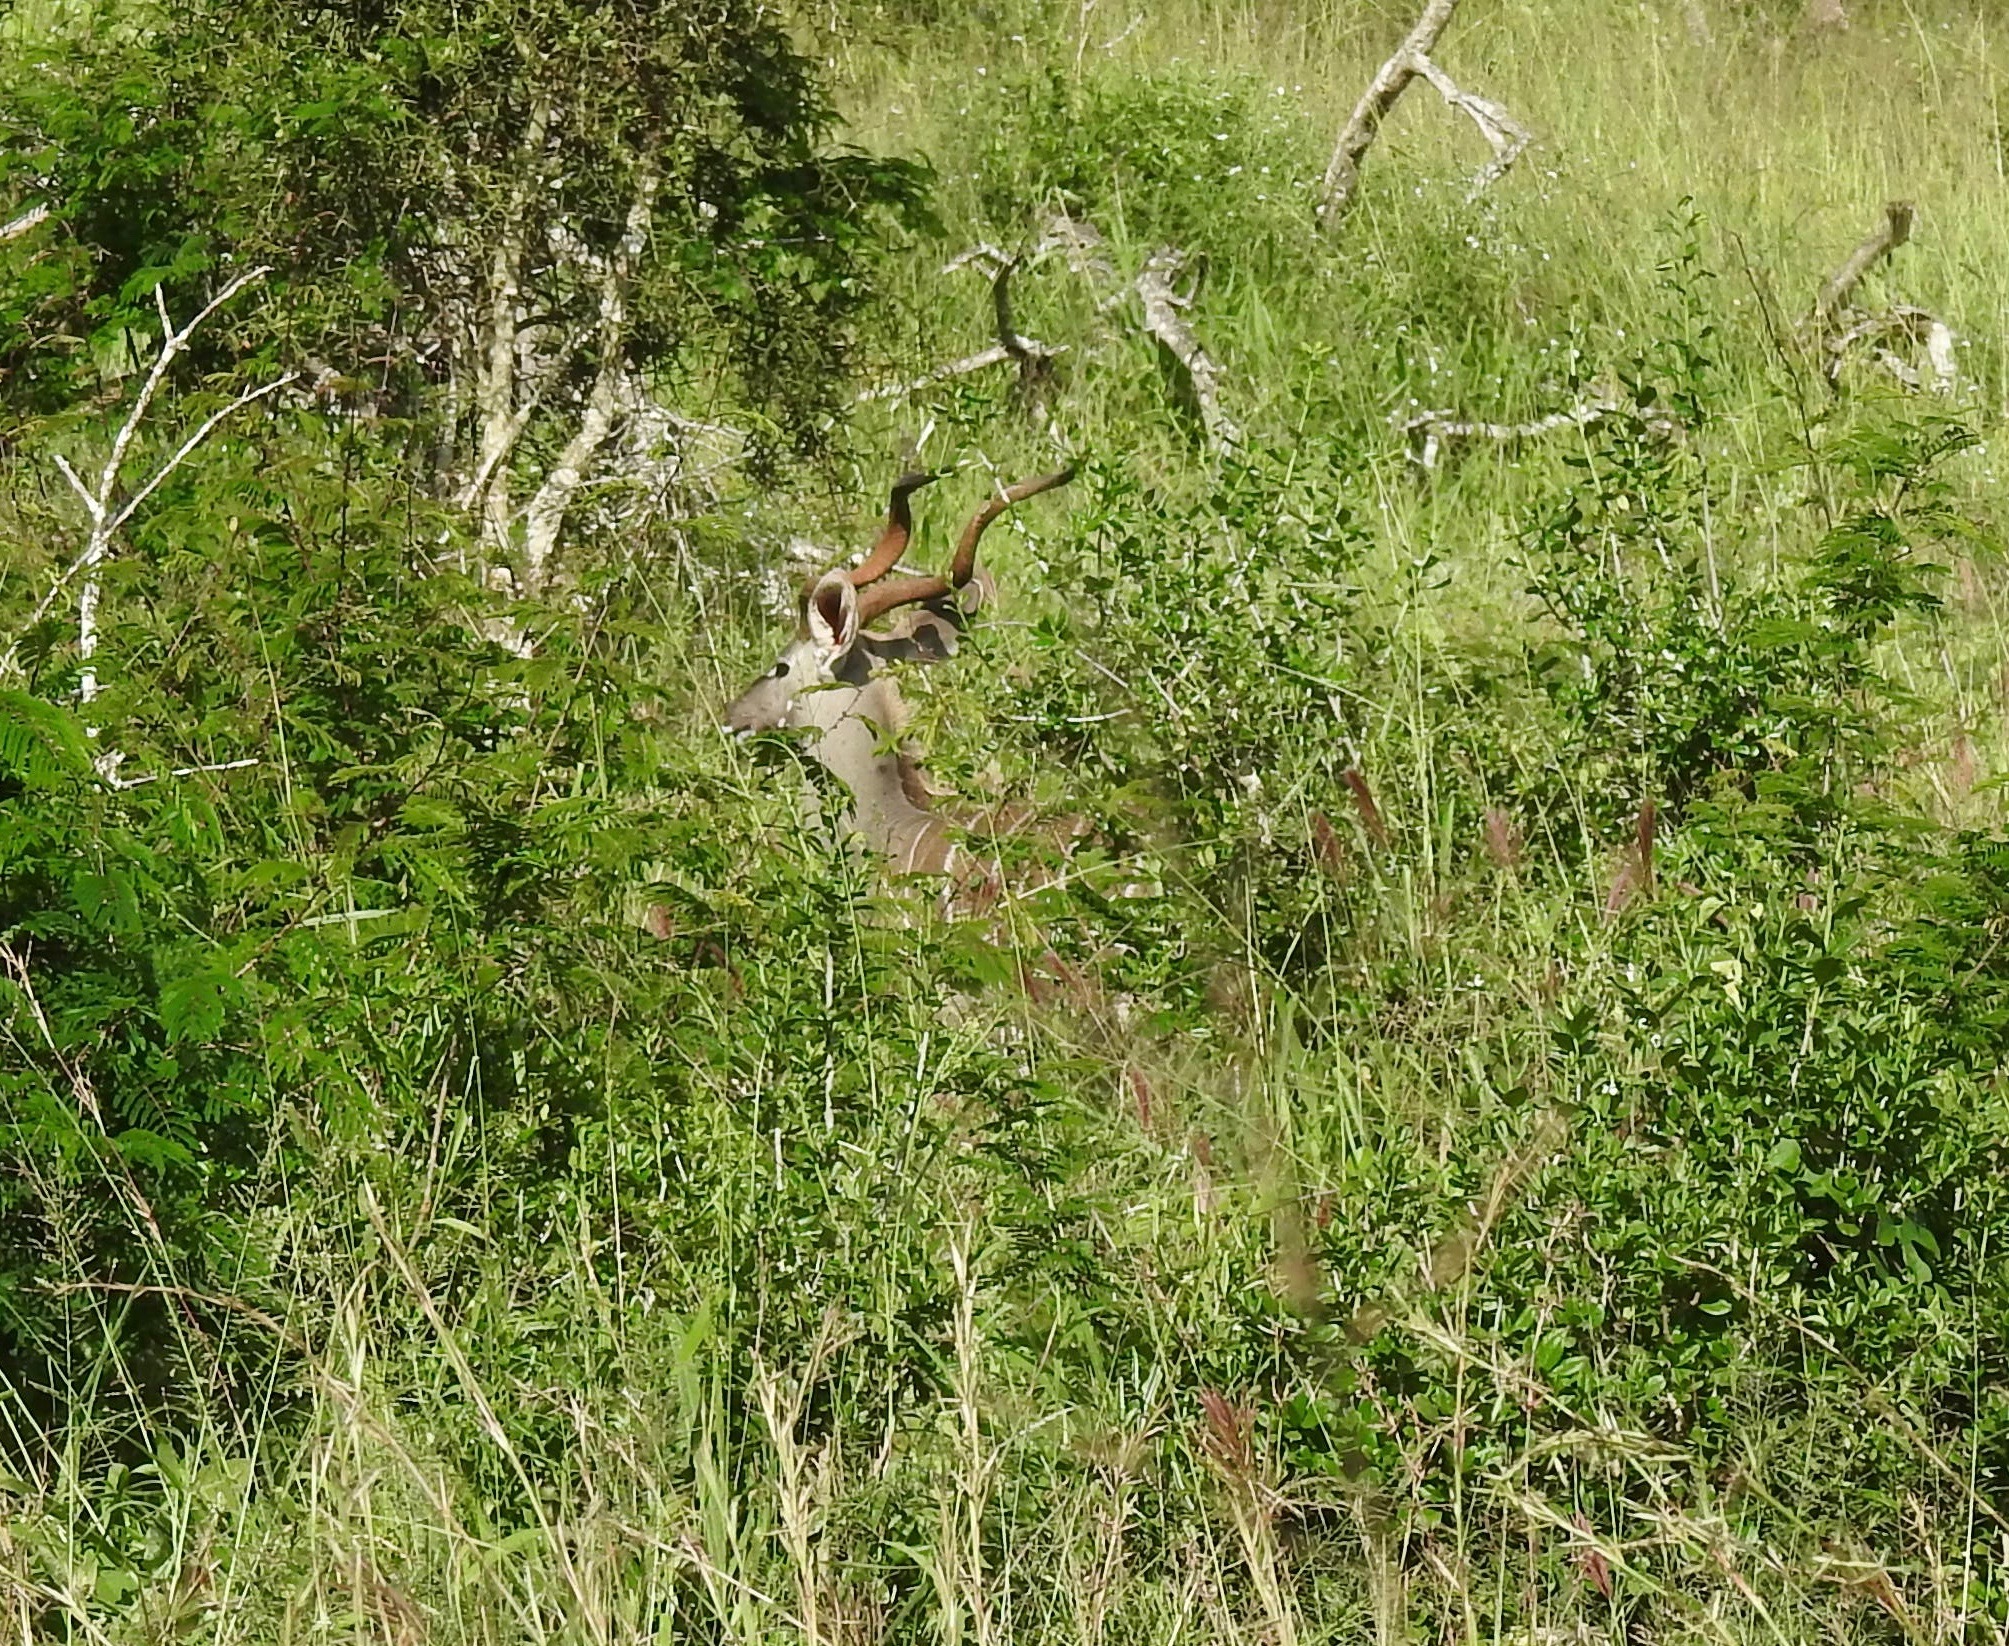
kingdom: Animalia
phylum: Chordata
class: Mammalia
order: Artiodactyla
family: Bovidae
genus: Tragelaphus
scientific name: Tragelaphus imberbis
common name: Lesser kudu
